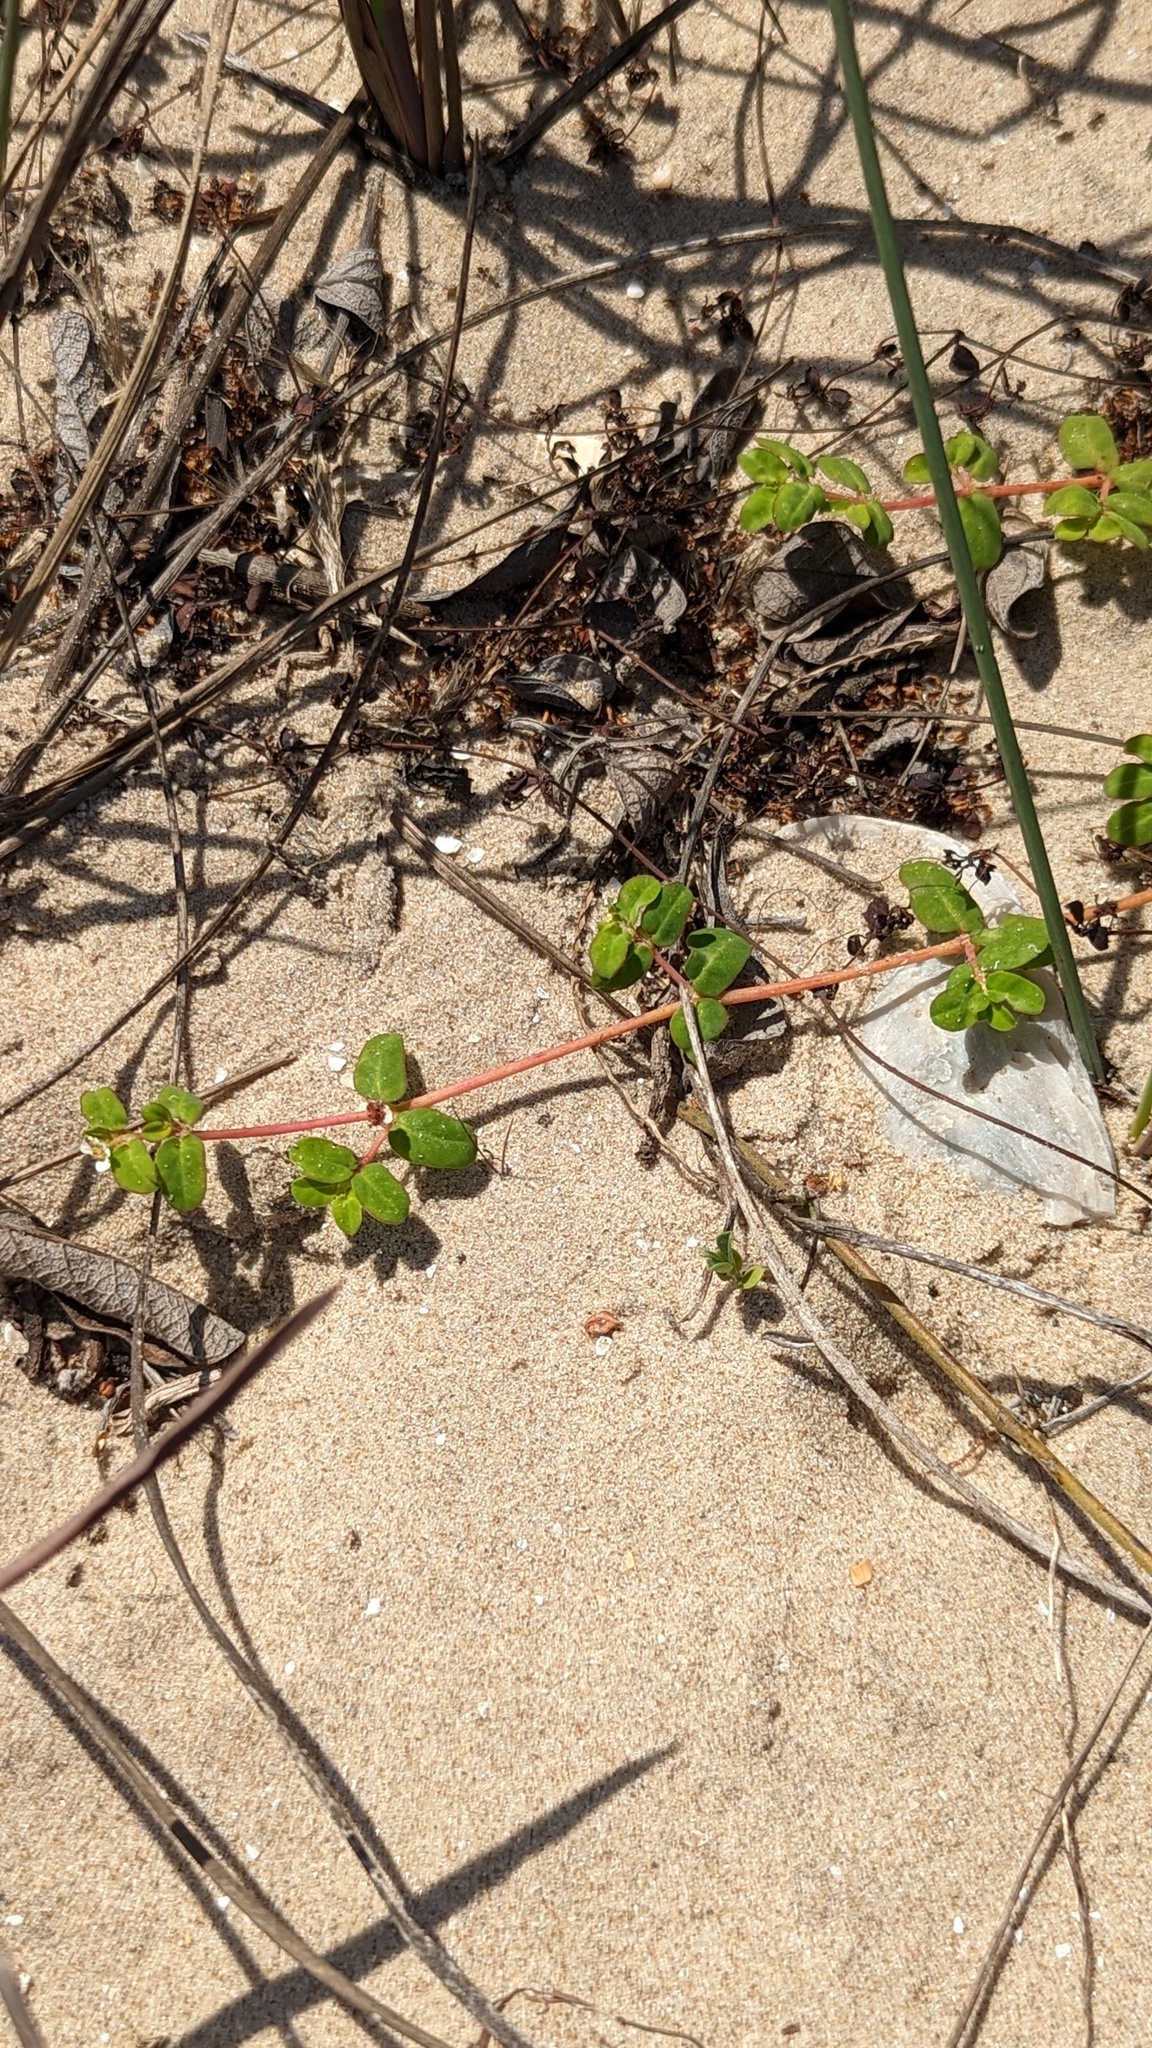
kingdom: Plantae
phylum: Tracheophyta
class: Magnoliopsida
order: Malpighiales
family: Euphorbiaceae
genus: Euphorbia
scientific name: Euphorbia cordifolia
